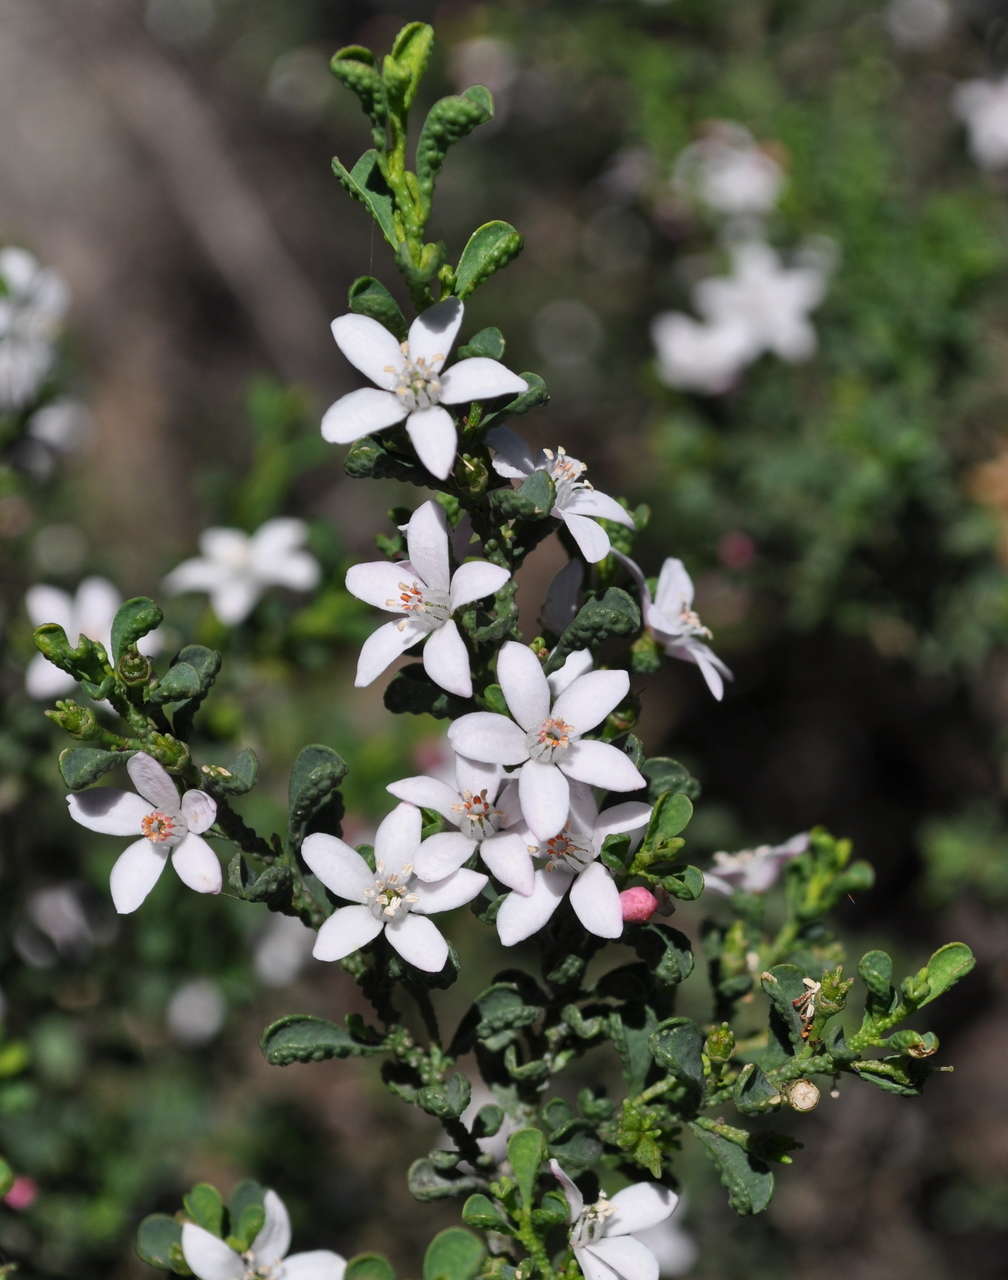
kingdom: Plantae
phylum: Tracheophyta
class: Magnoliopsida
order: Sapindales
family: Rutaceae
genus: Philotheca
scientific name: Philotheca verrucosa
